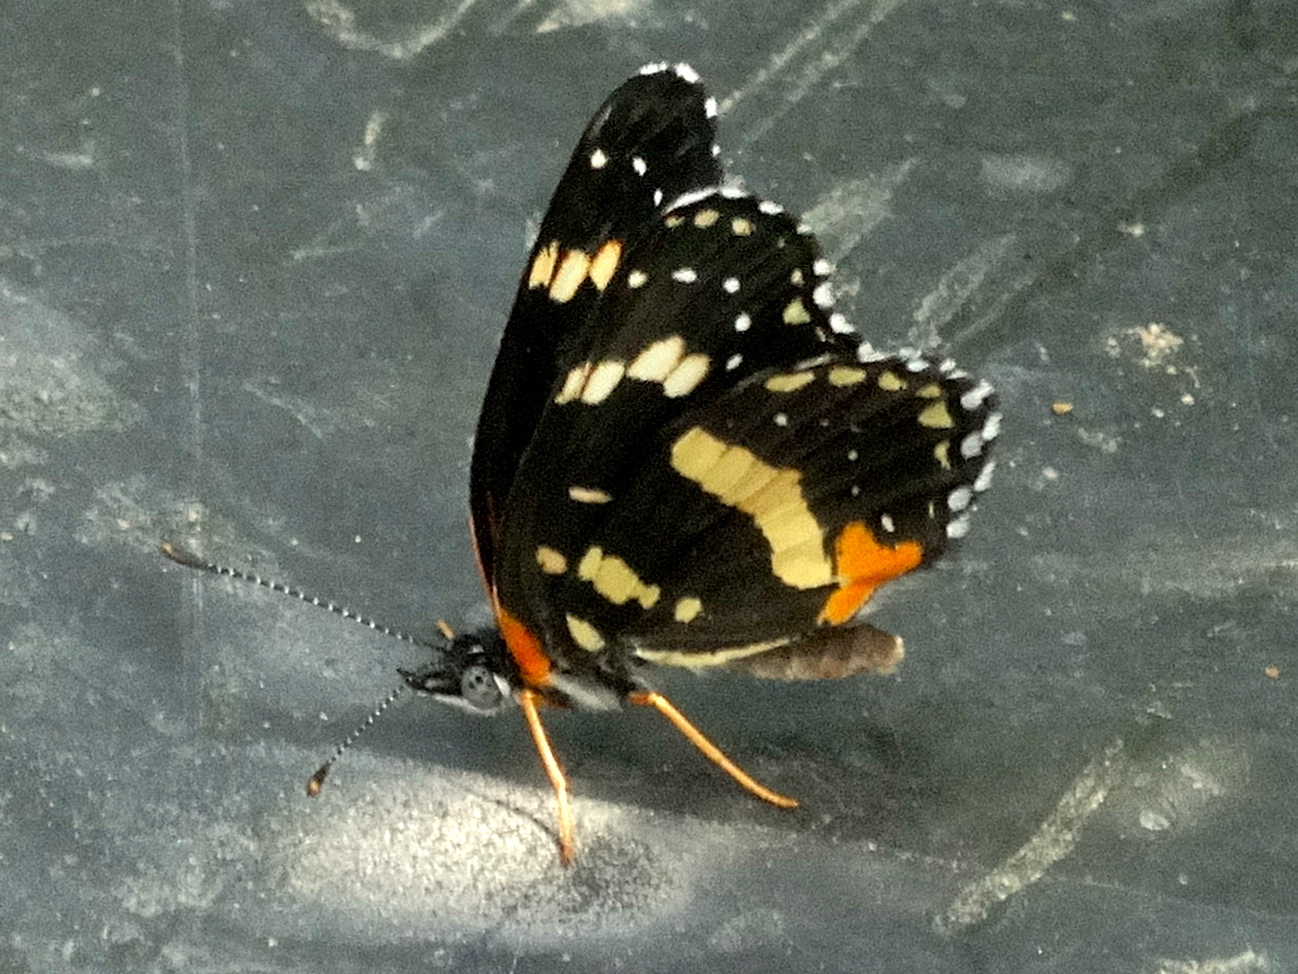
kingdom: Animalia
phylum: Arthropoda
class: Insecta
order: Lepidoptera
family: Nymphalidae
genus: Chlosyne
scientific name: Chlosyne lacinia
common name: Bordered patch
